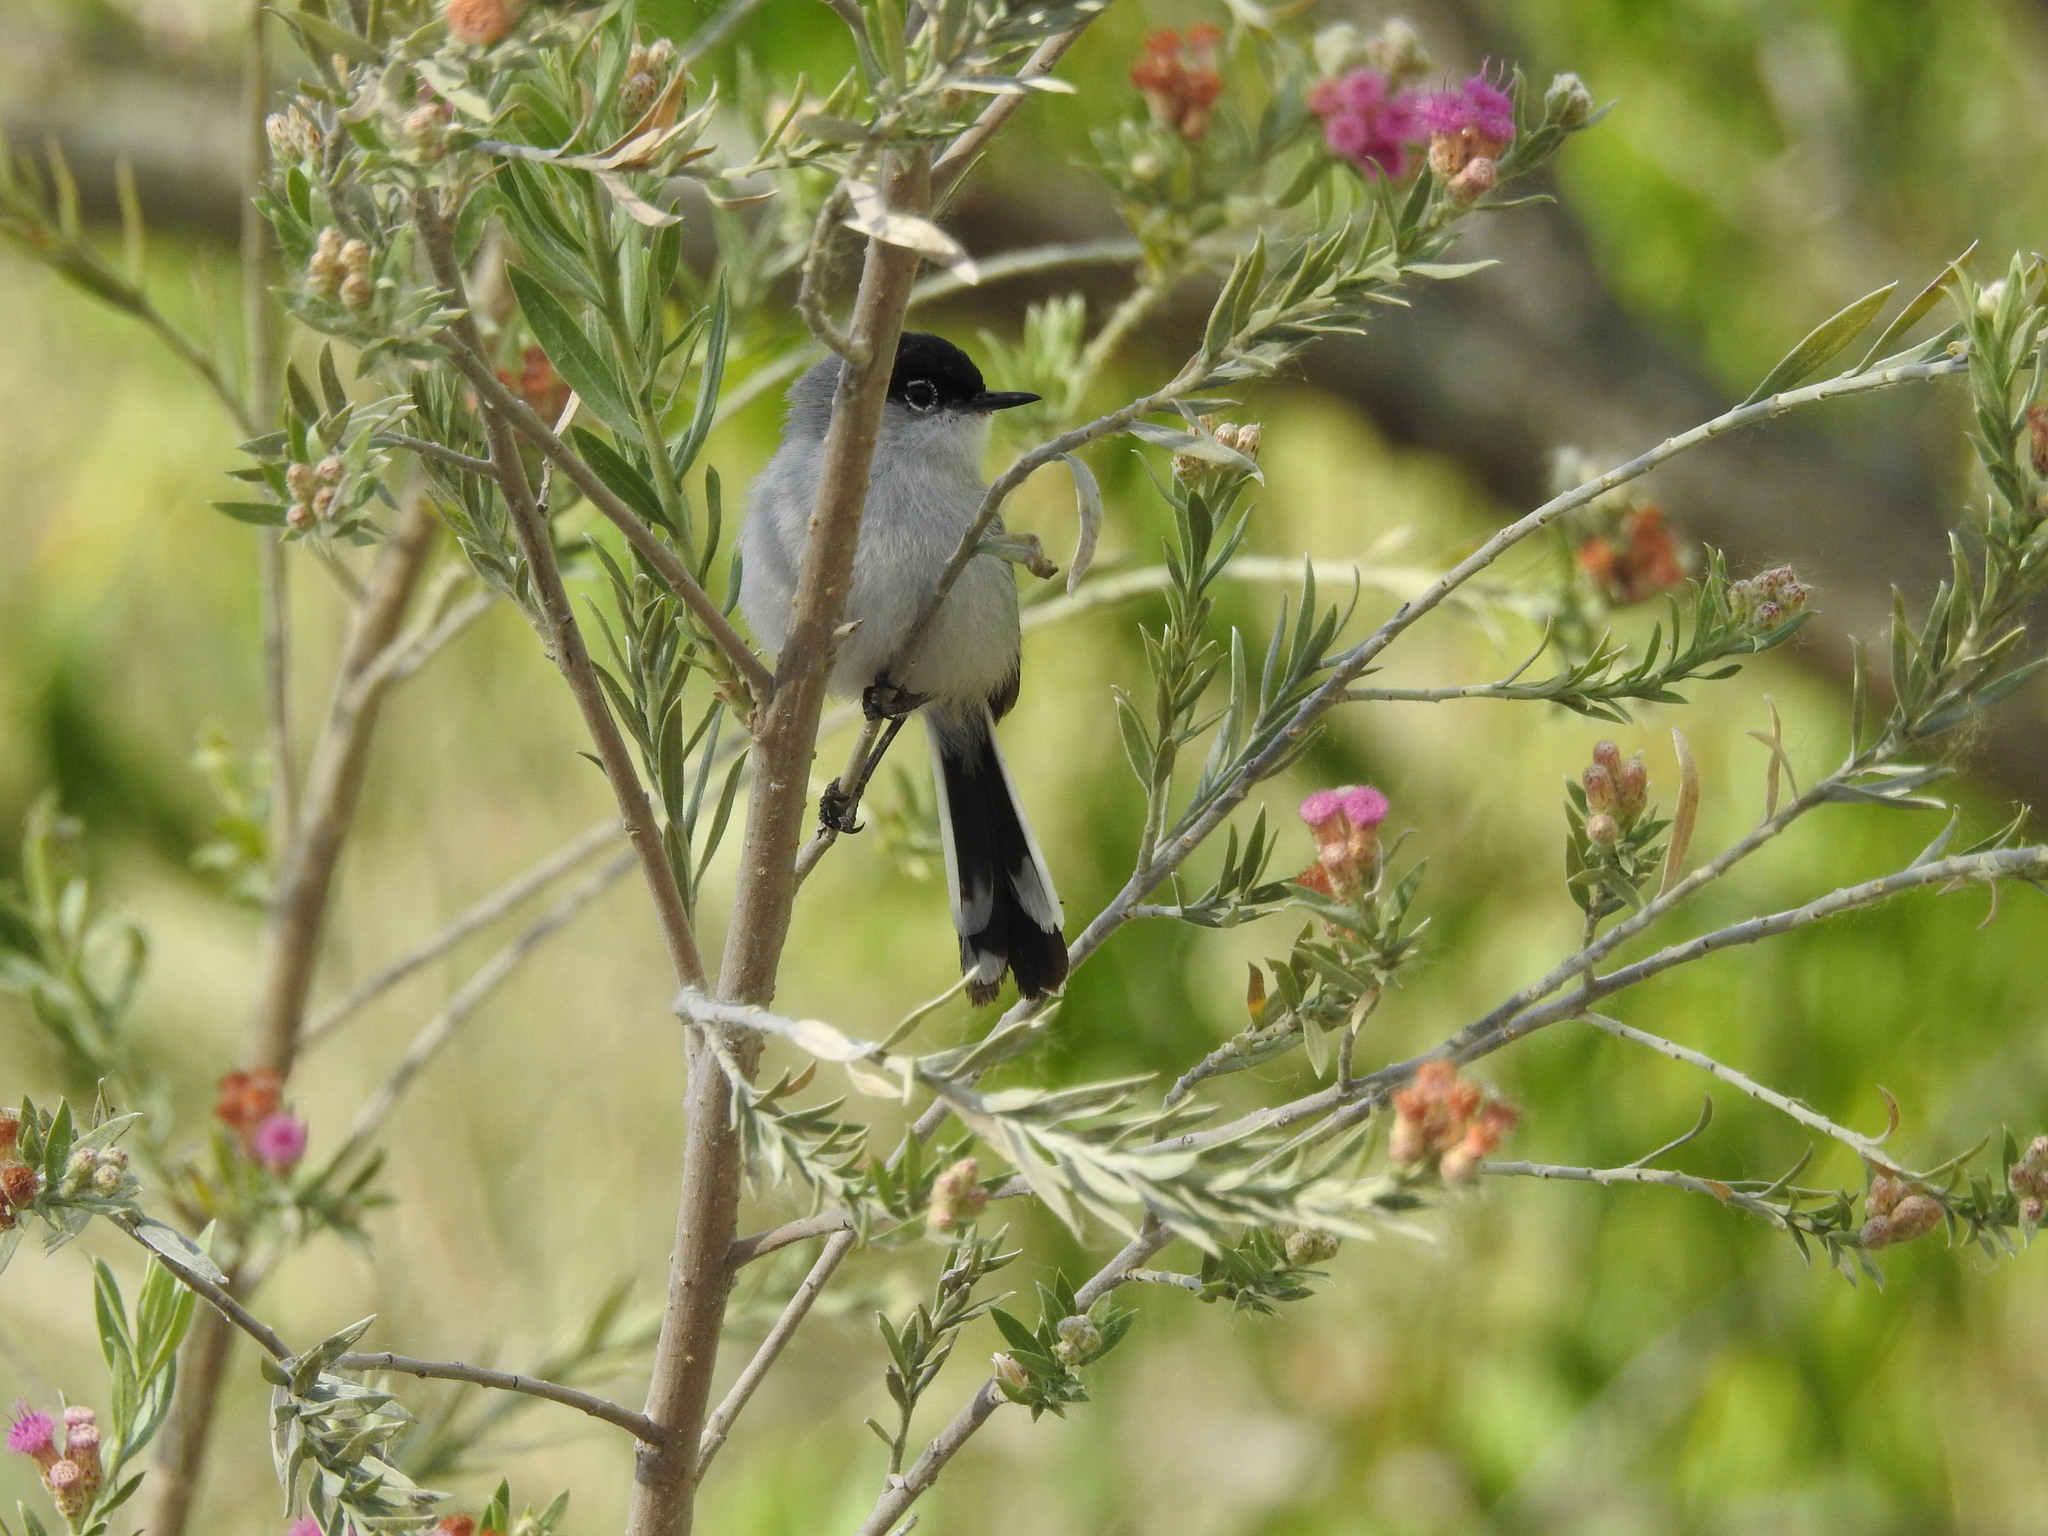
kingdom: Animalia
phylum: Chordata
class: Aves
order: Passeriformes
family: Polioptilidae
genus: Polioptila
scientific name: Polioptila melanura
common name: Black-tailed gnatcatcher
